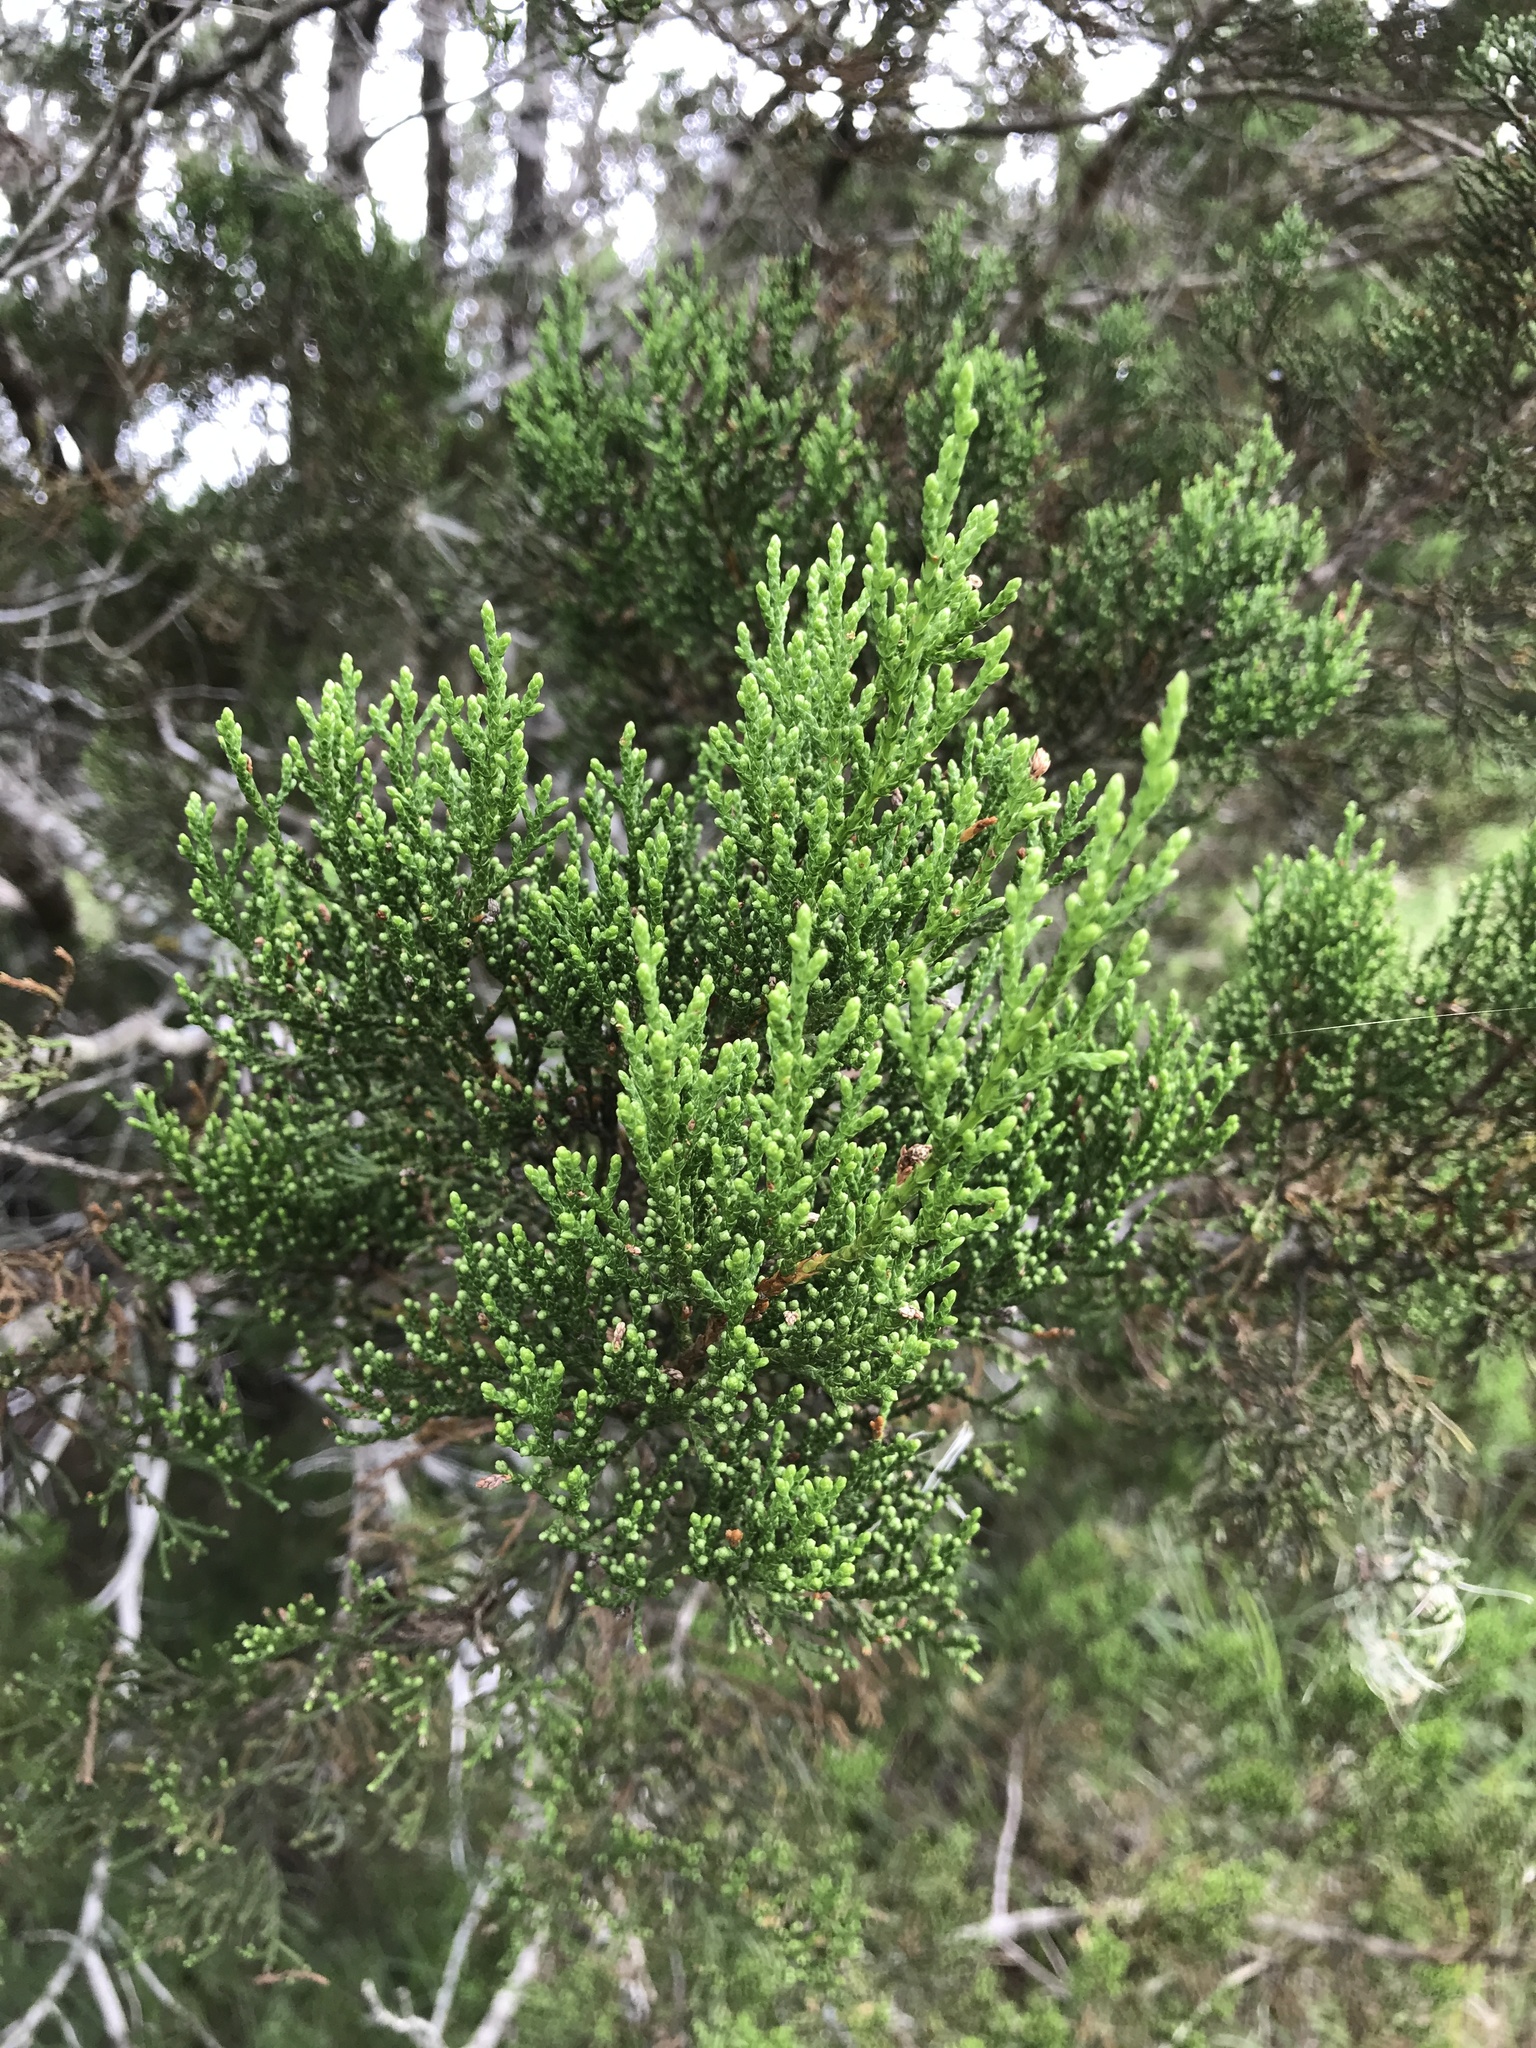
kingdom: Plantae
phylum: Tracheophyta
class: Pinopsida
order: Pinales
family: Cupressaceae
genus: Juniperus
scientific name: Juniperus ashei
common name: Mexican juniper
